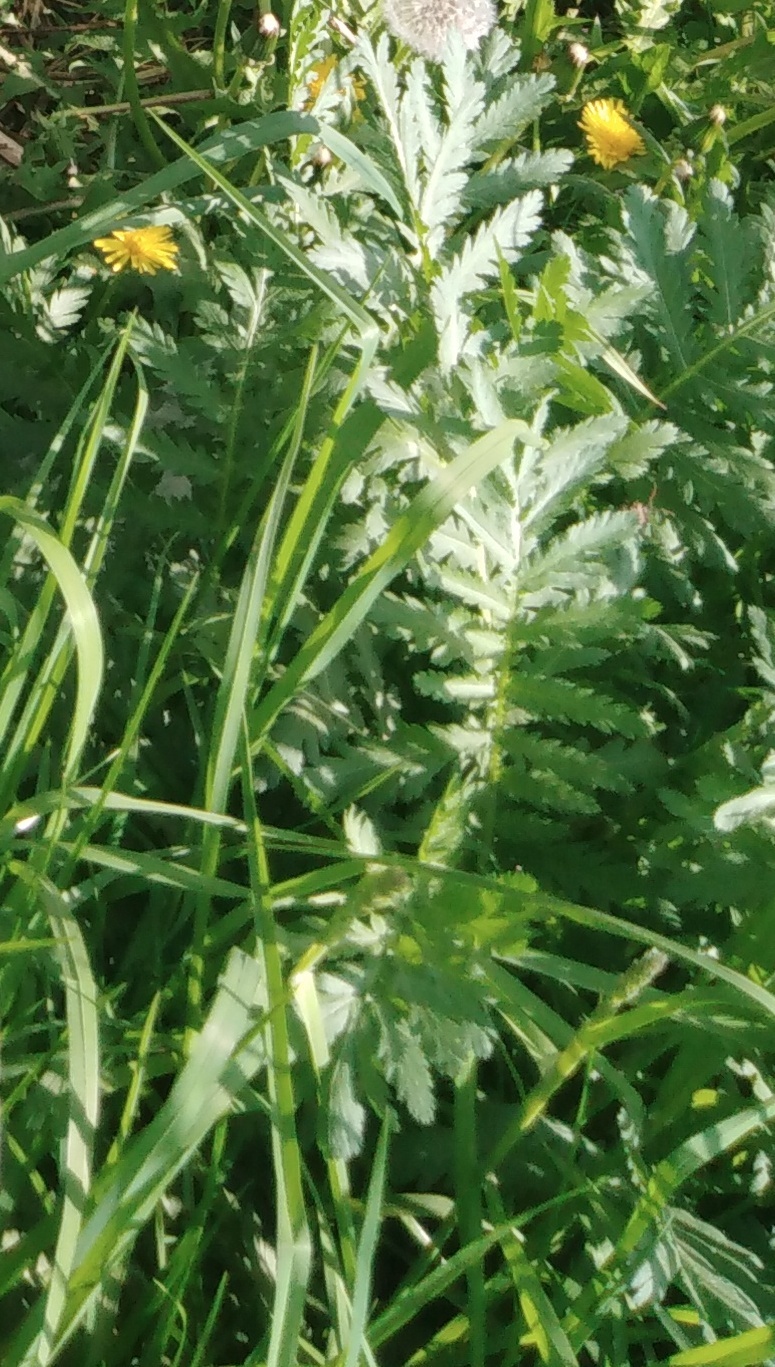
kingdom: Plantae
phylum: Tracheophyta
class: Magnoliopsida
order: Asterales
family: Asteraceae
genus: Tanacetum
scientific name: Tanacetum vulgare
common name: Common tansy
